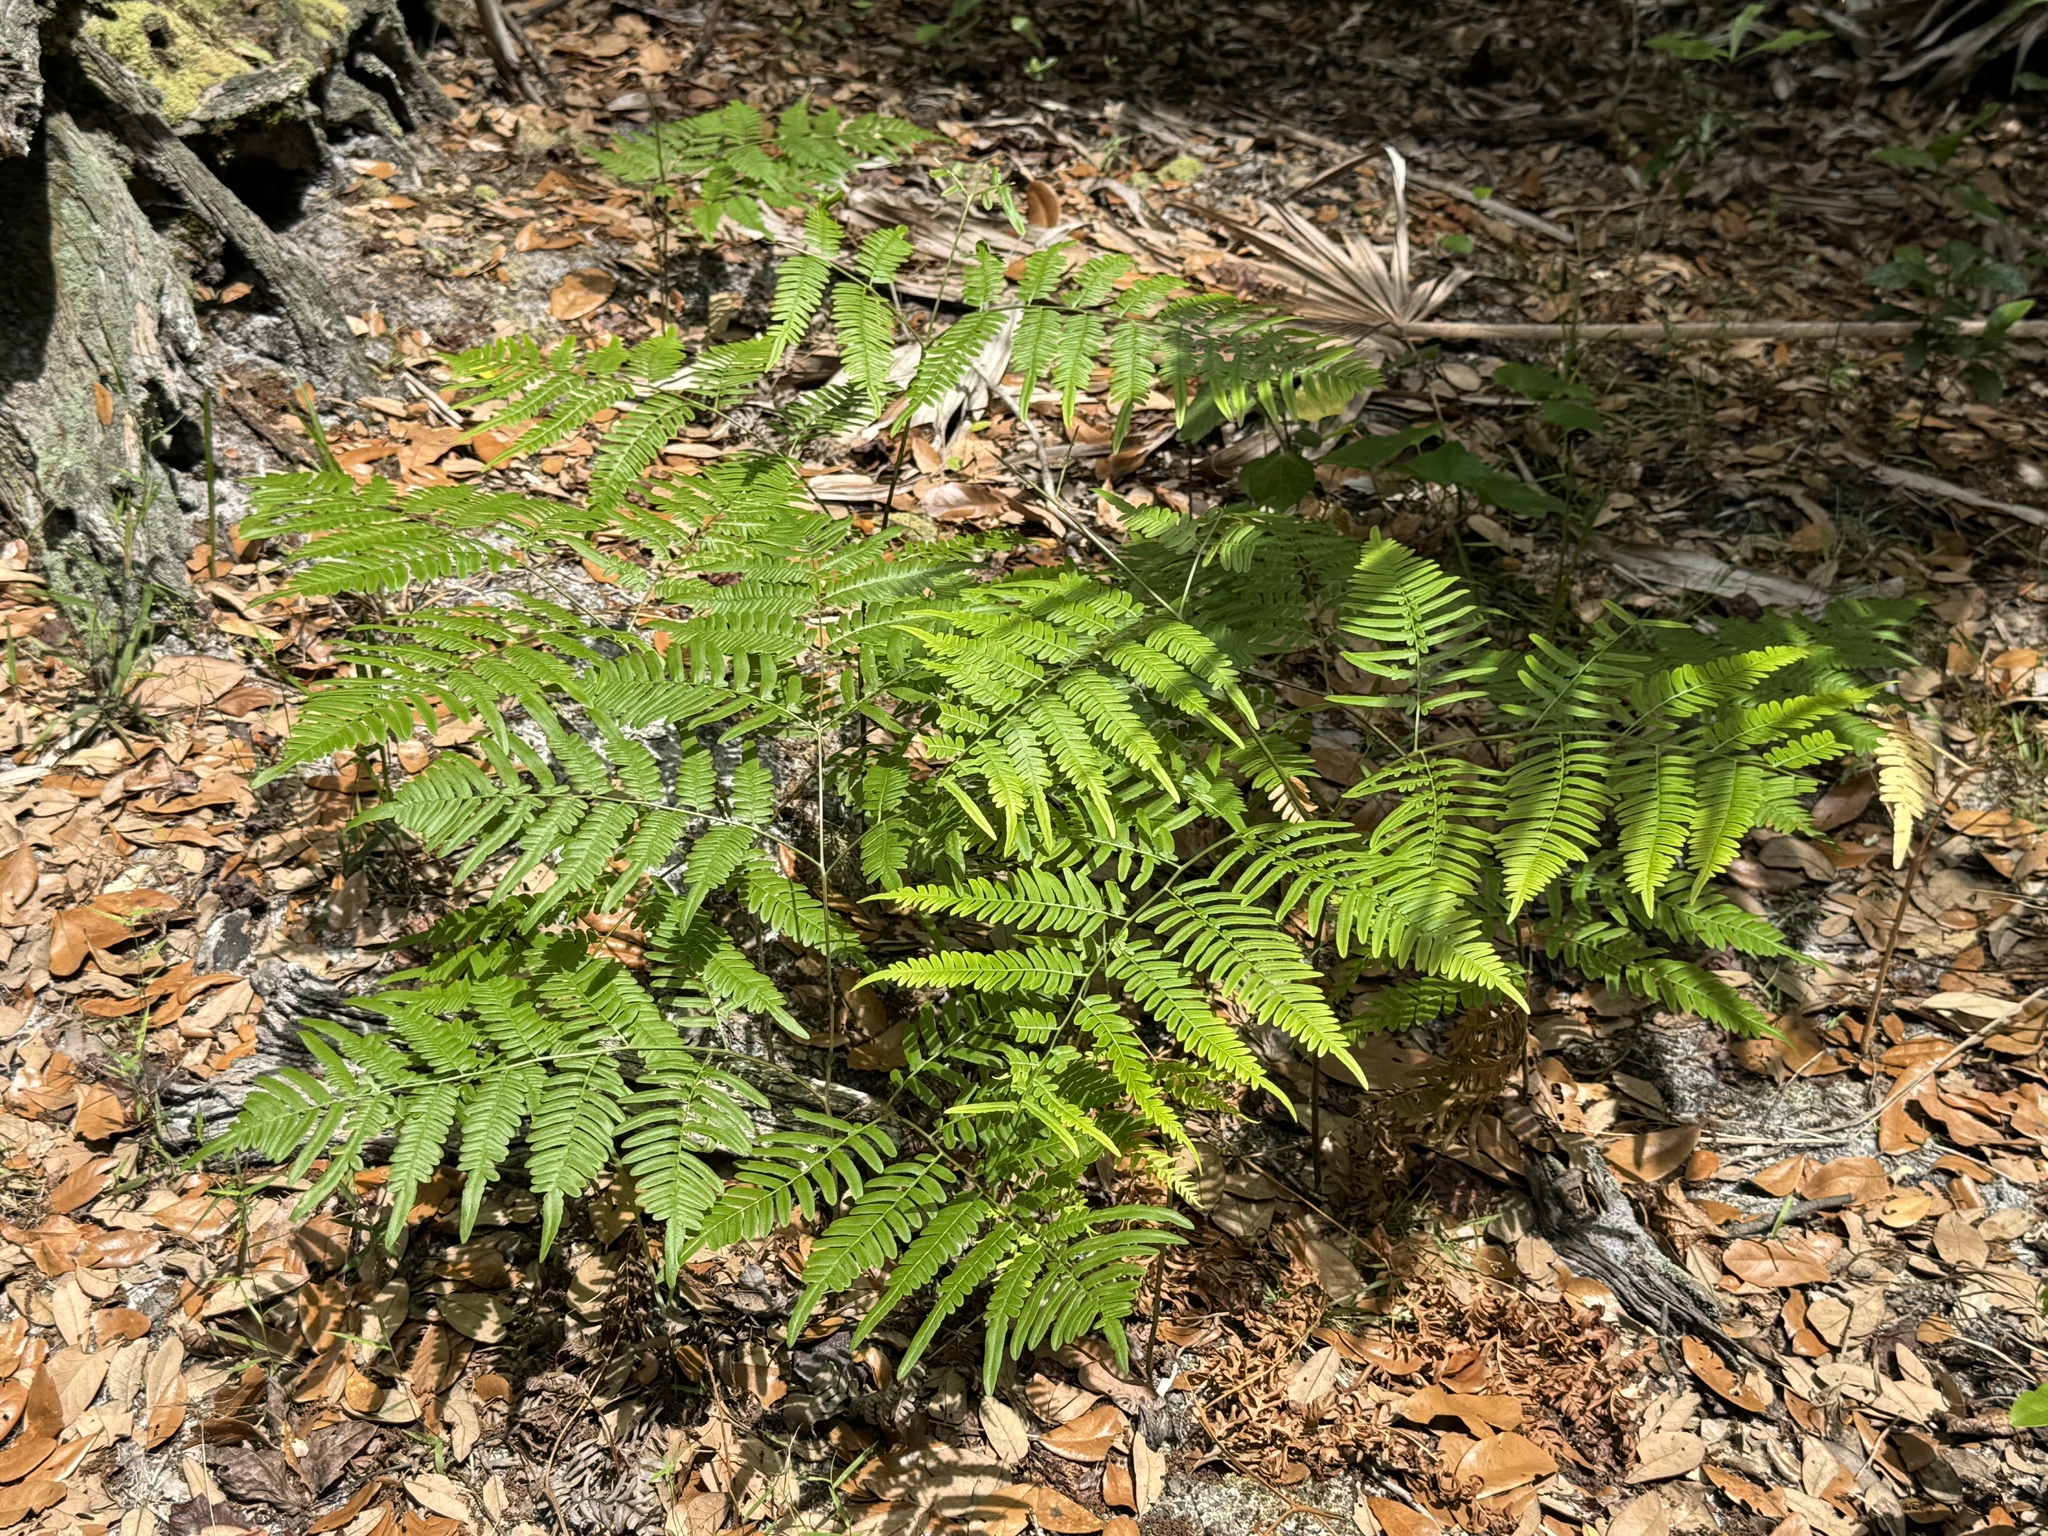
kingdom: Plantae
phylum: Tracheophyta
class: Polypodiopsida
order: Polypodiales
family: Dennstaedtiaceae
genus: Pteridium
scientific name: Pteridium
